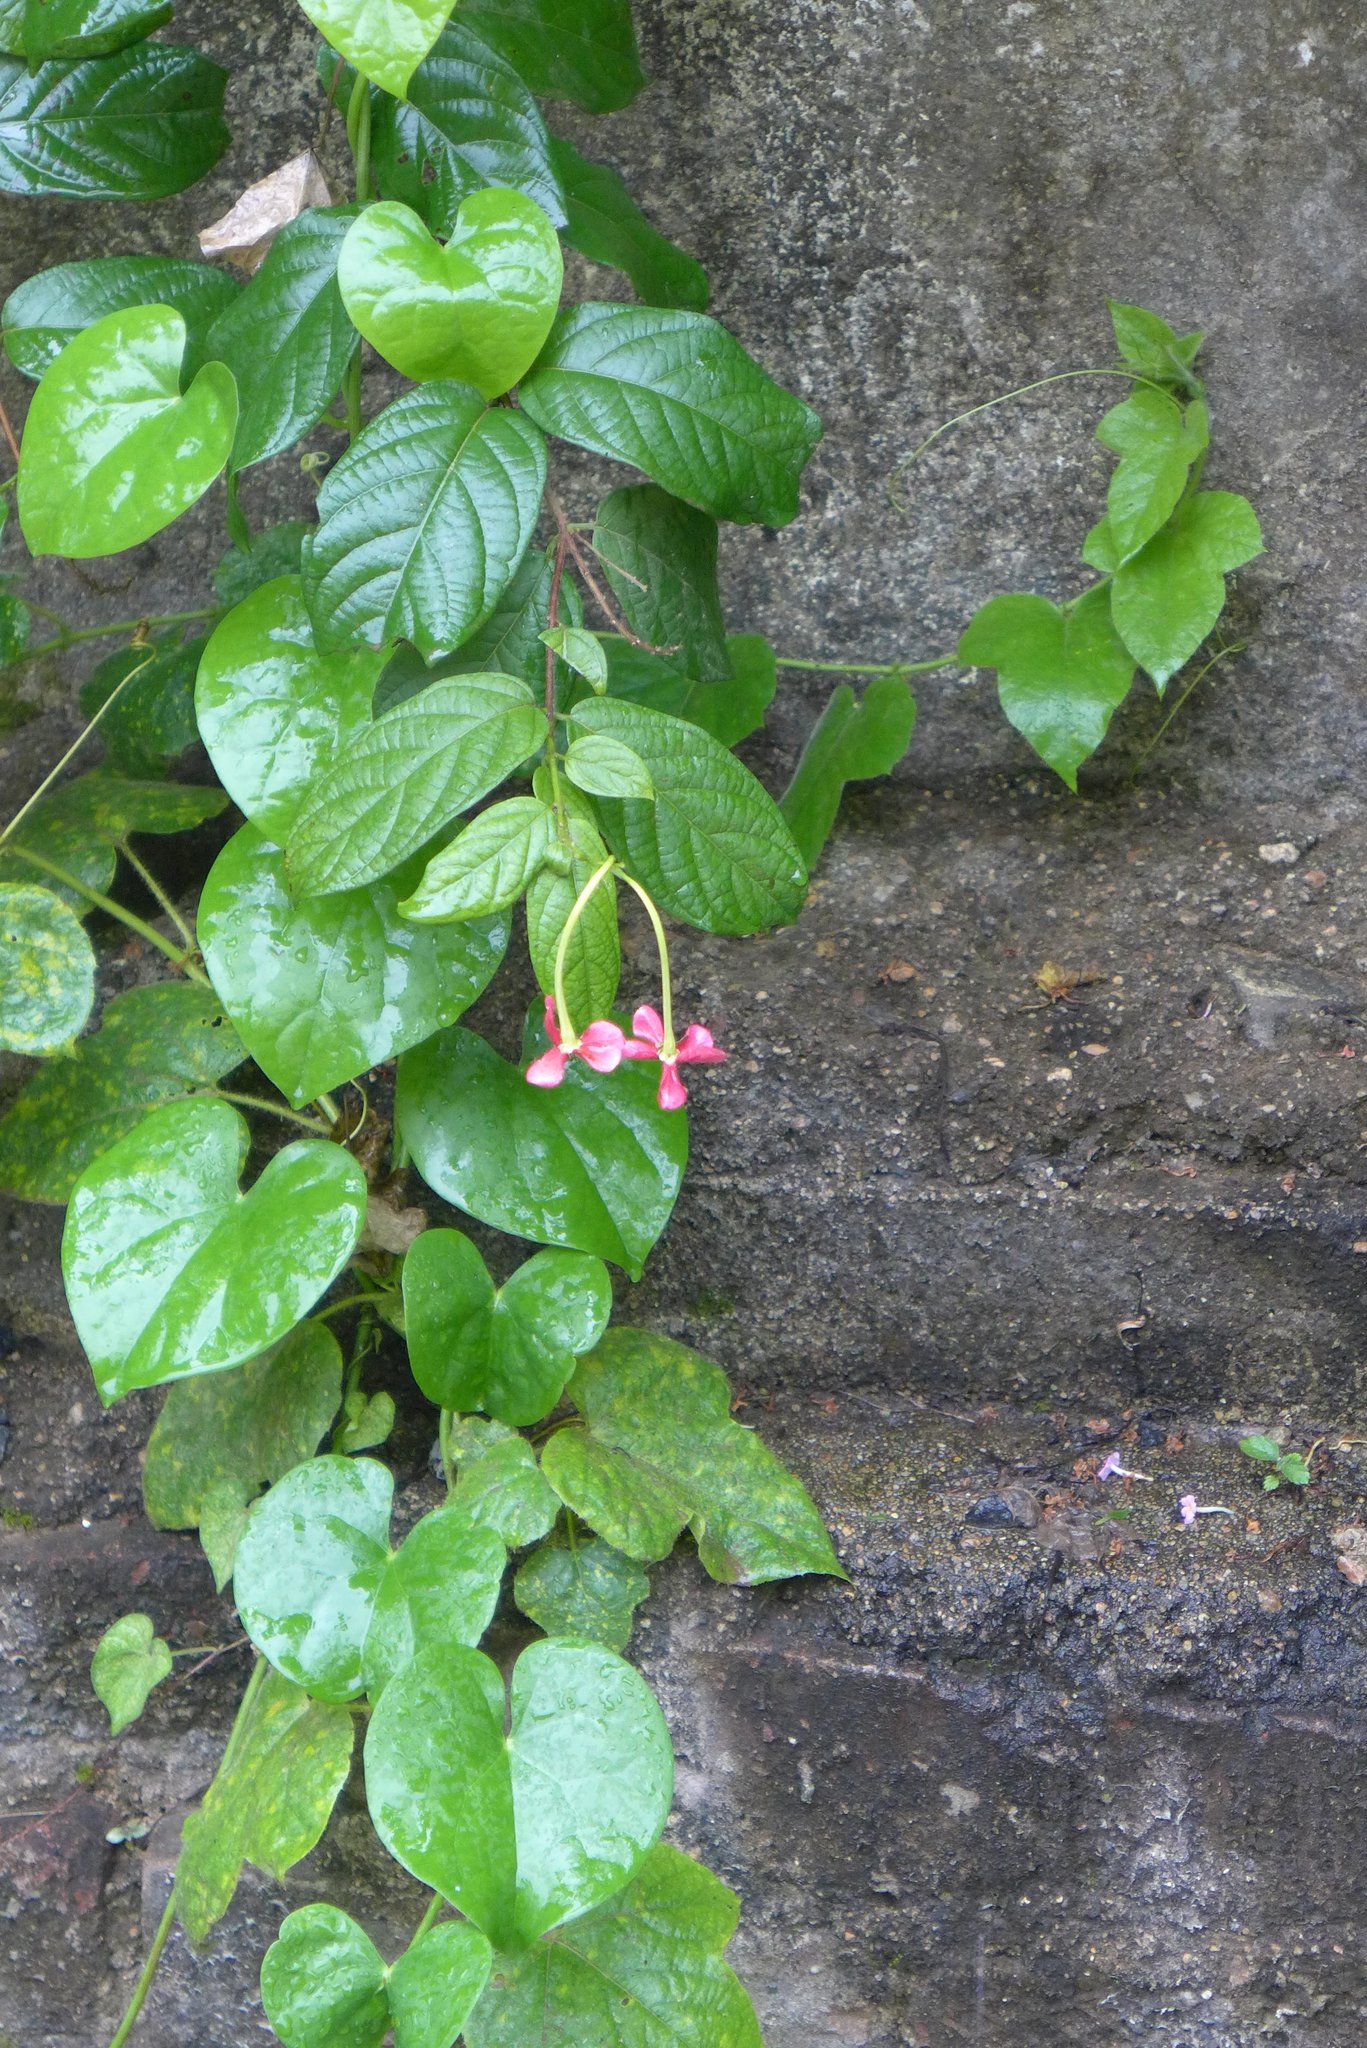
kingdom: Plantae
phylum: Tracheophyta
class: Magnoliopsida
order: Myrtales
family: Combretaceae
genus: Combretum
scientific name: Combretum indicum
